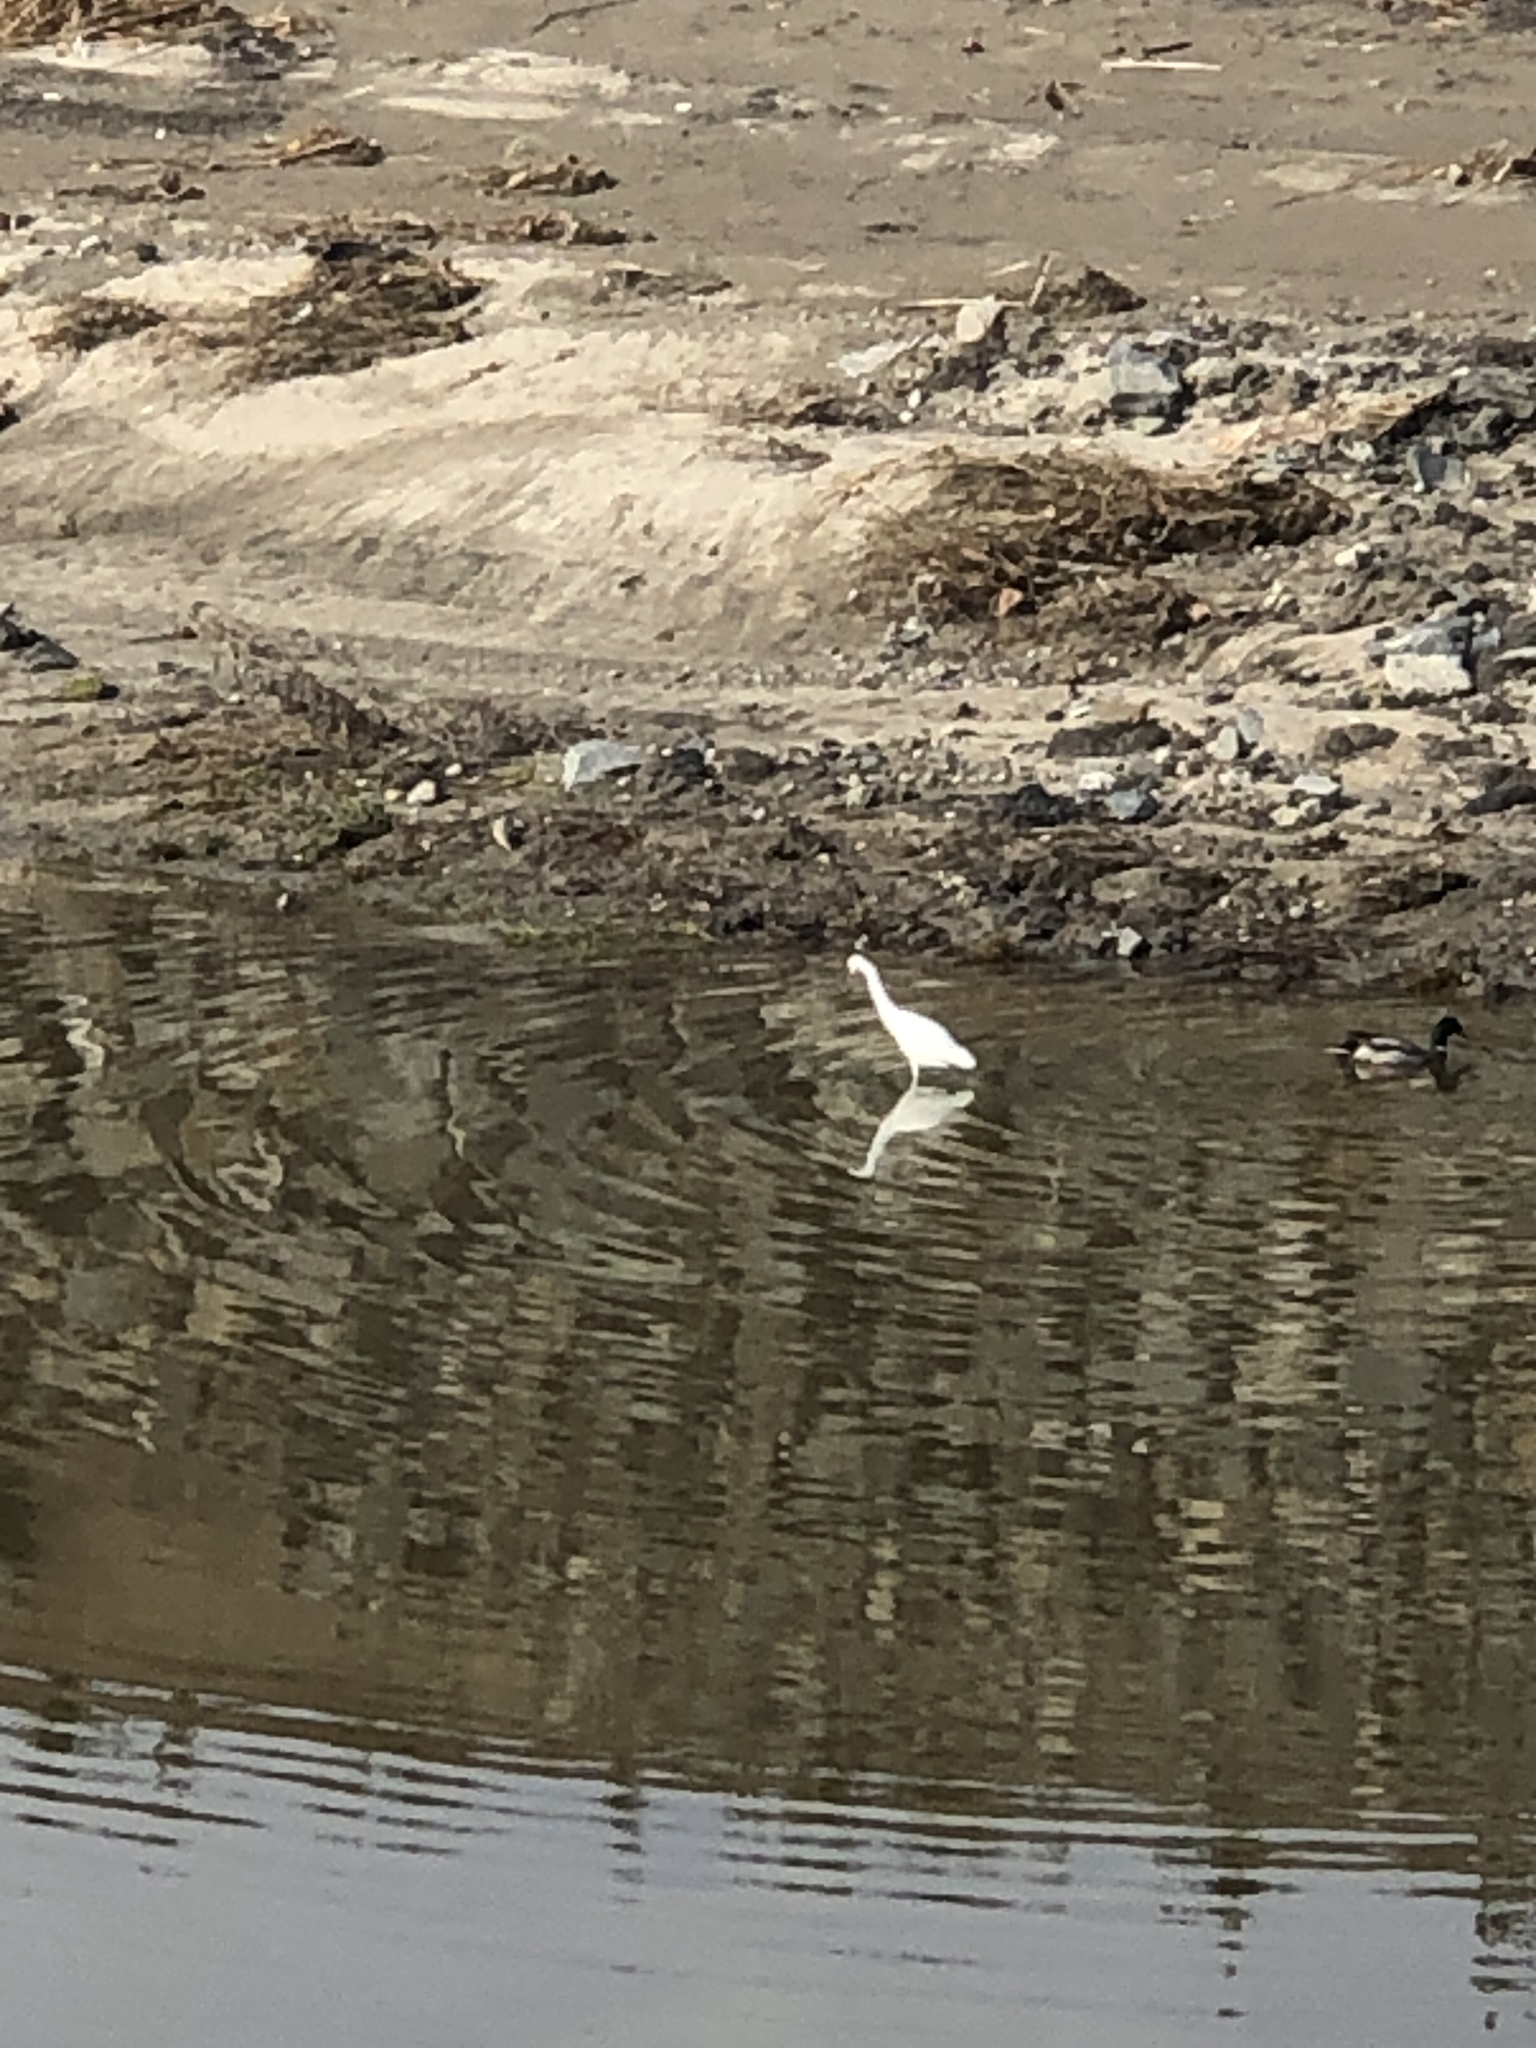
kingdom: Animalia
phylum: Chordata
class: Aves
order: Pelecaniformes
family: Ardeidae
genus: Egretta
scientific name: Egretta thula
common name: Snowy egret
